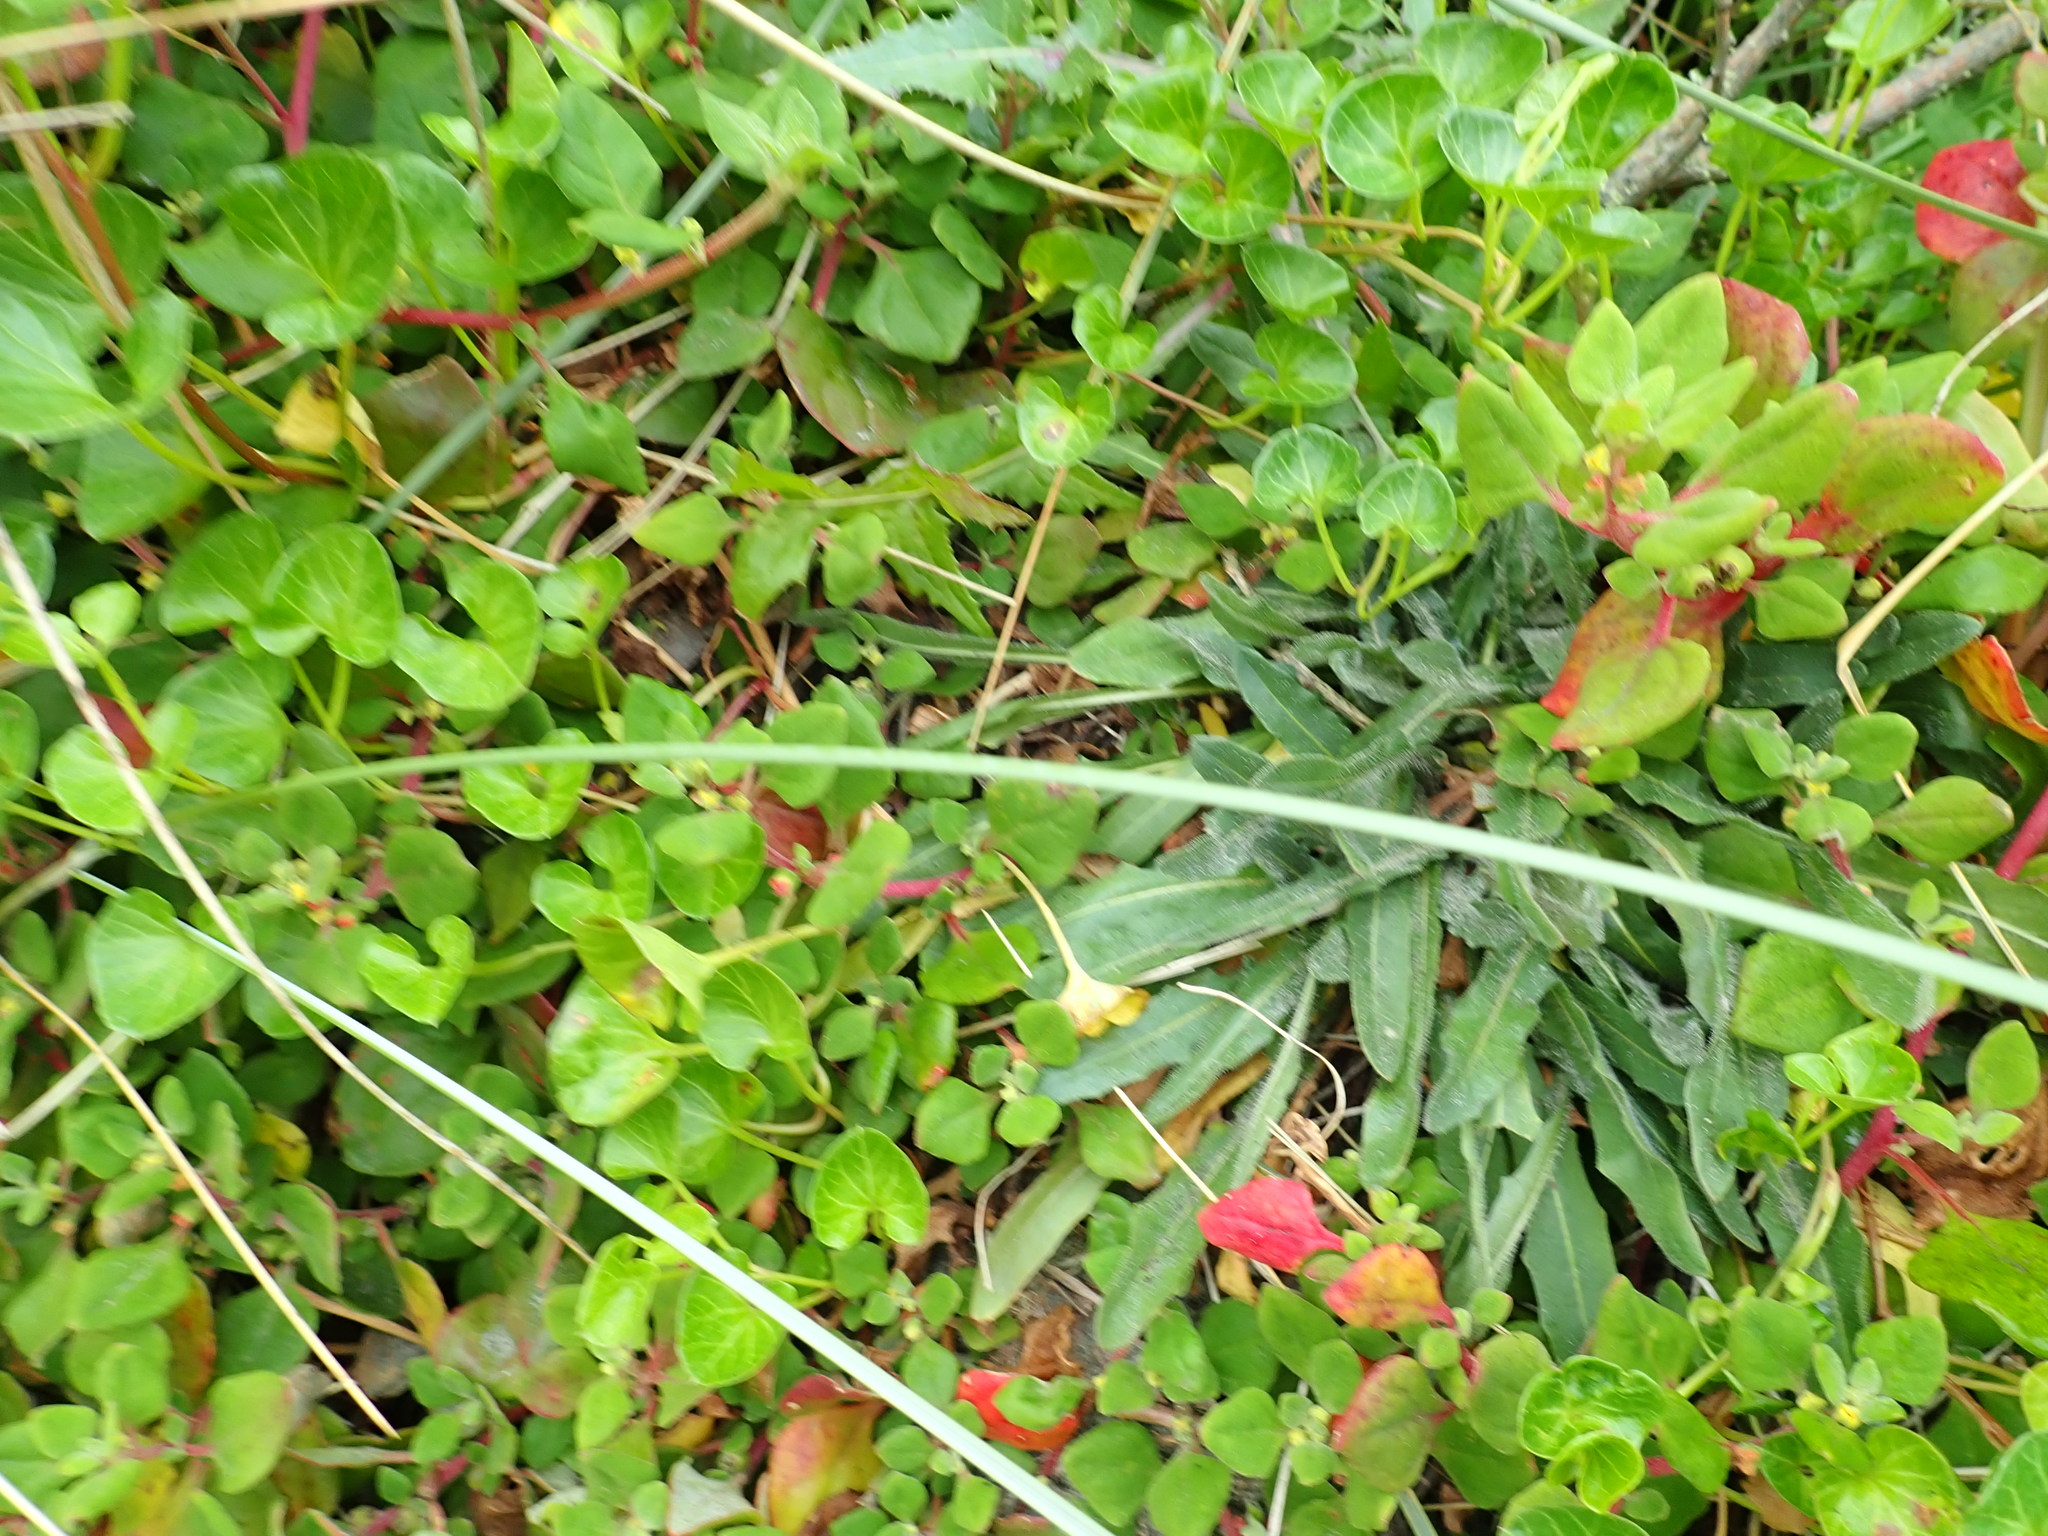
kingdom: Plantae
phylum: Tracheophyta
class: Magnoliopsida
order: Caryophyllales
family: Aizoaceae
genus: Tetragonia
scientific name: Tetragonia implexicoma
